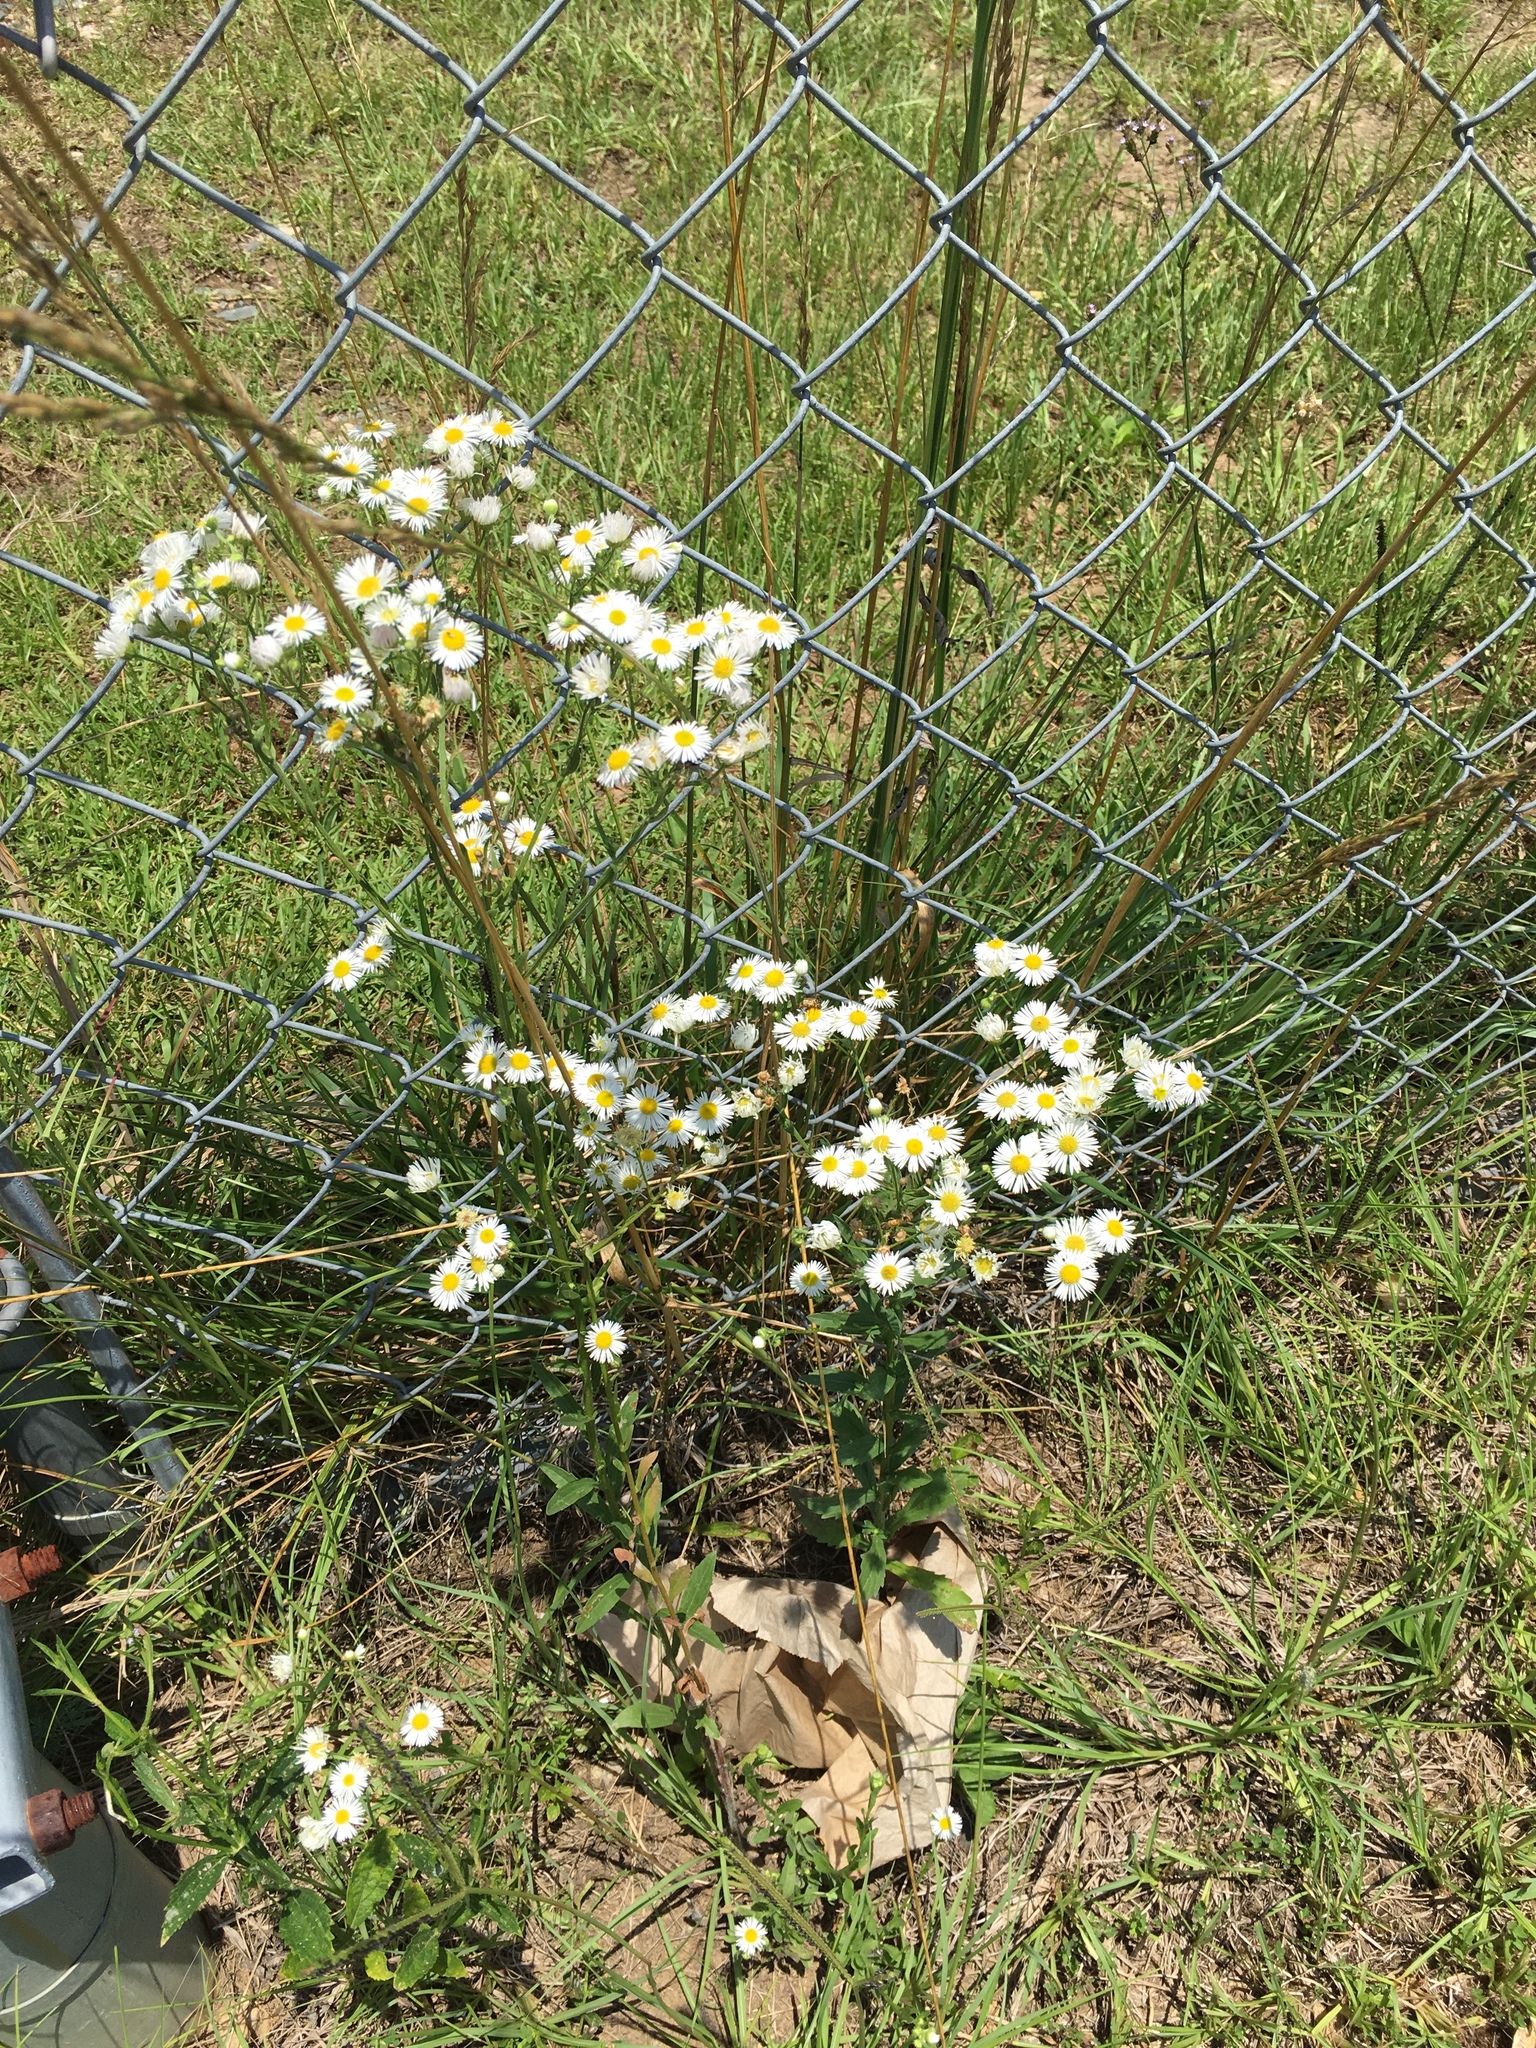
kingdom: Plantae
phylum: Tracheophyta
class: Magnoliopsida
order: Asterales
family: Asteraceae
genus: Erigeron
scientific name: Erigeron annuus
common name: Tall fleabane
